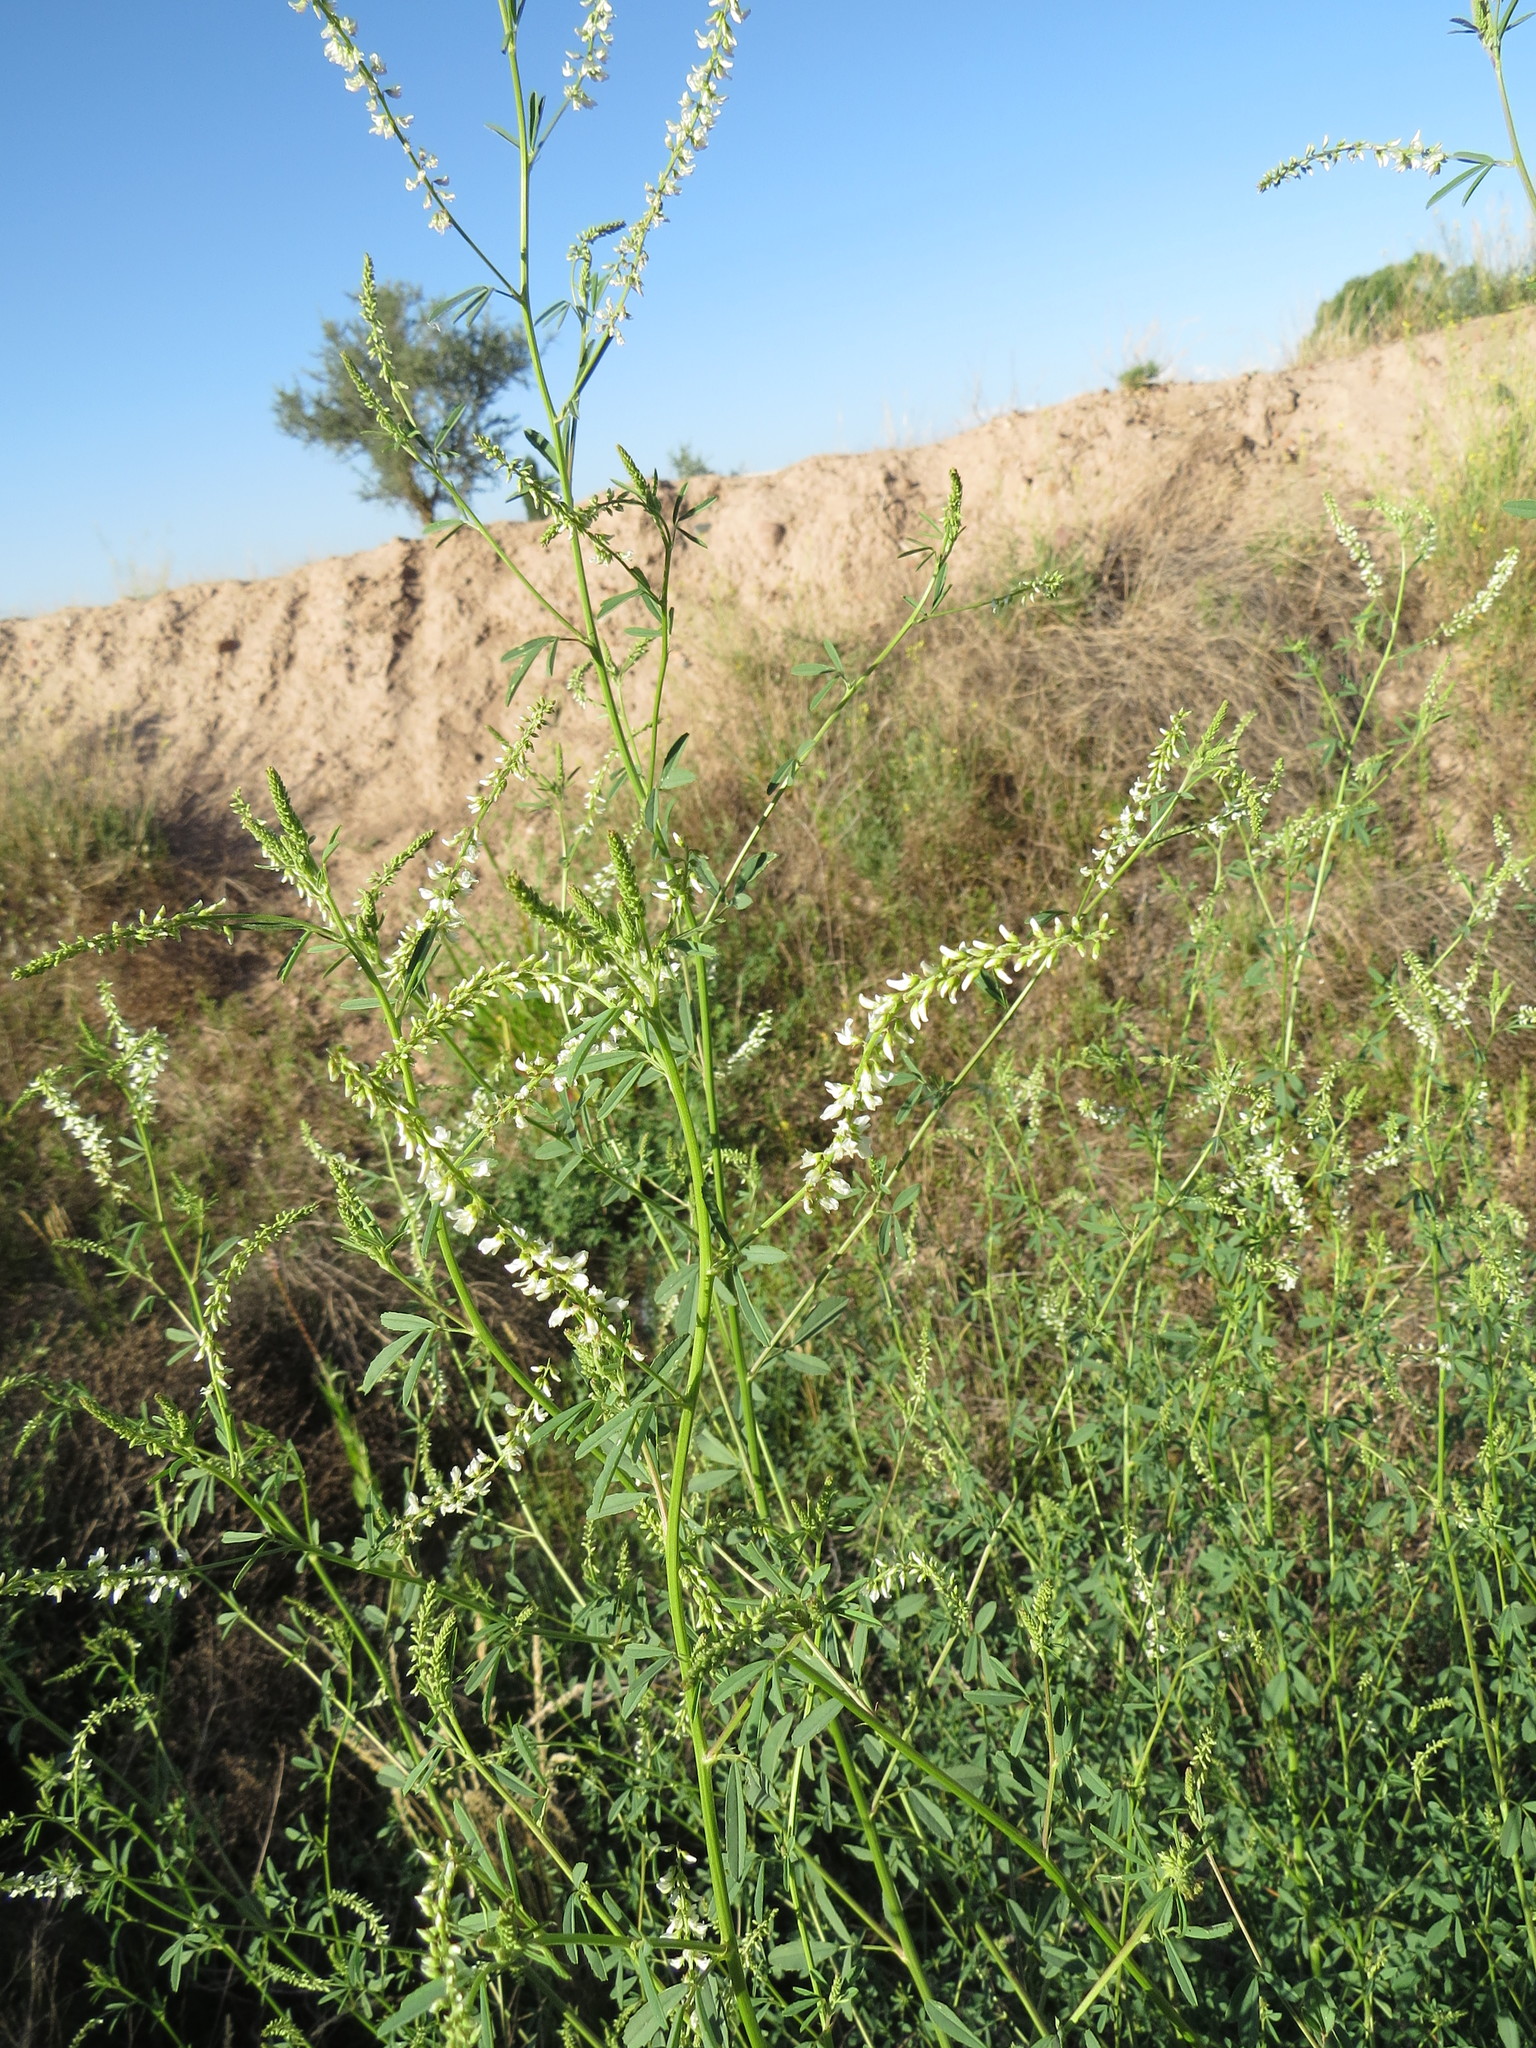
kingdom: Plantae
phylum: Tracheophyta
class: Magnoliopsida
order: Fabales
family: Fabaceae
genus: Melilotus
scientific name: Melilotus albus
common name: White melilot
